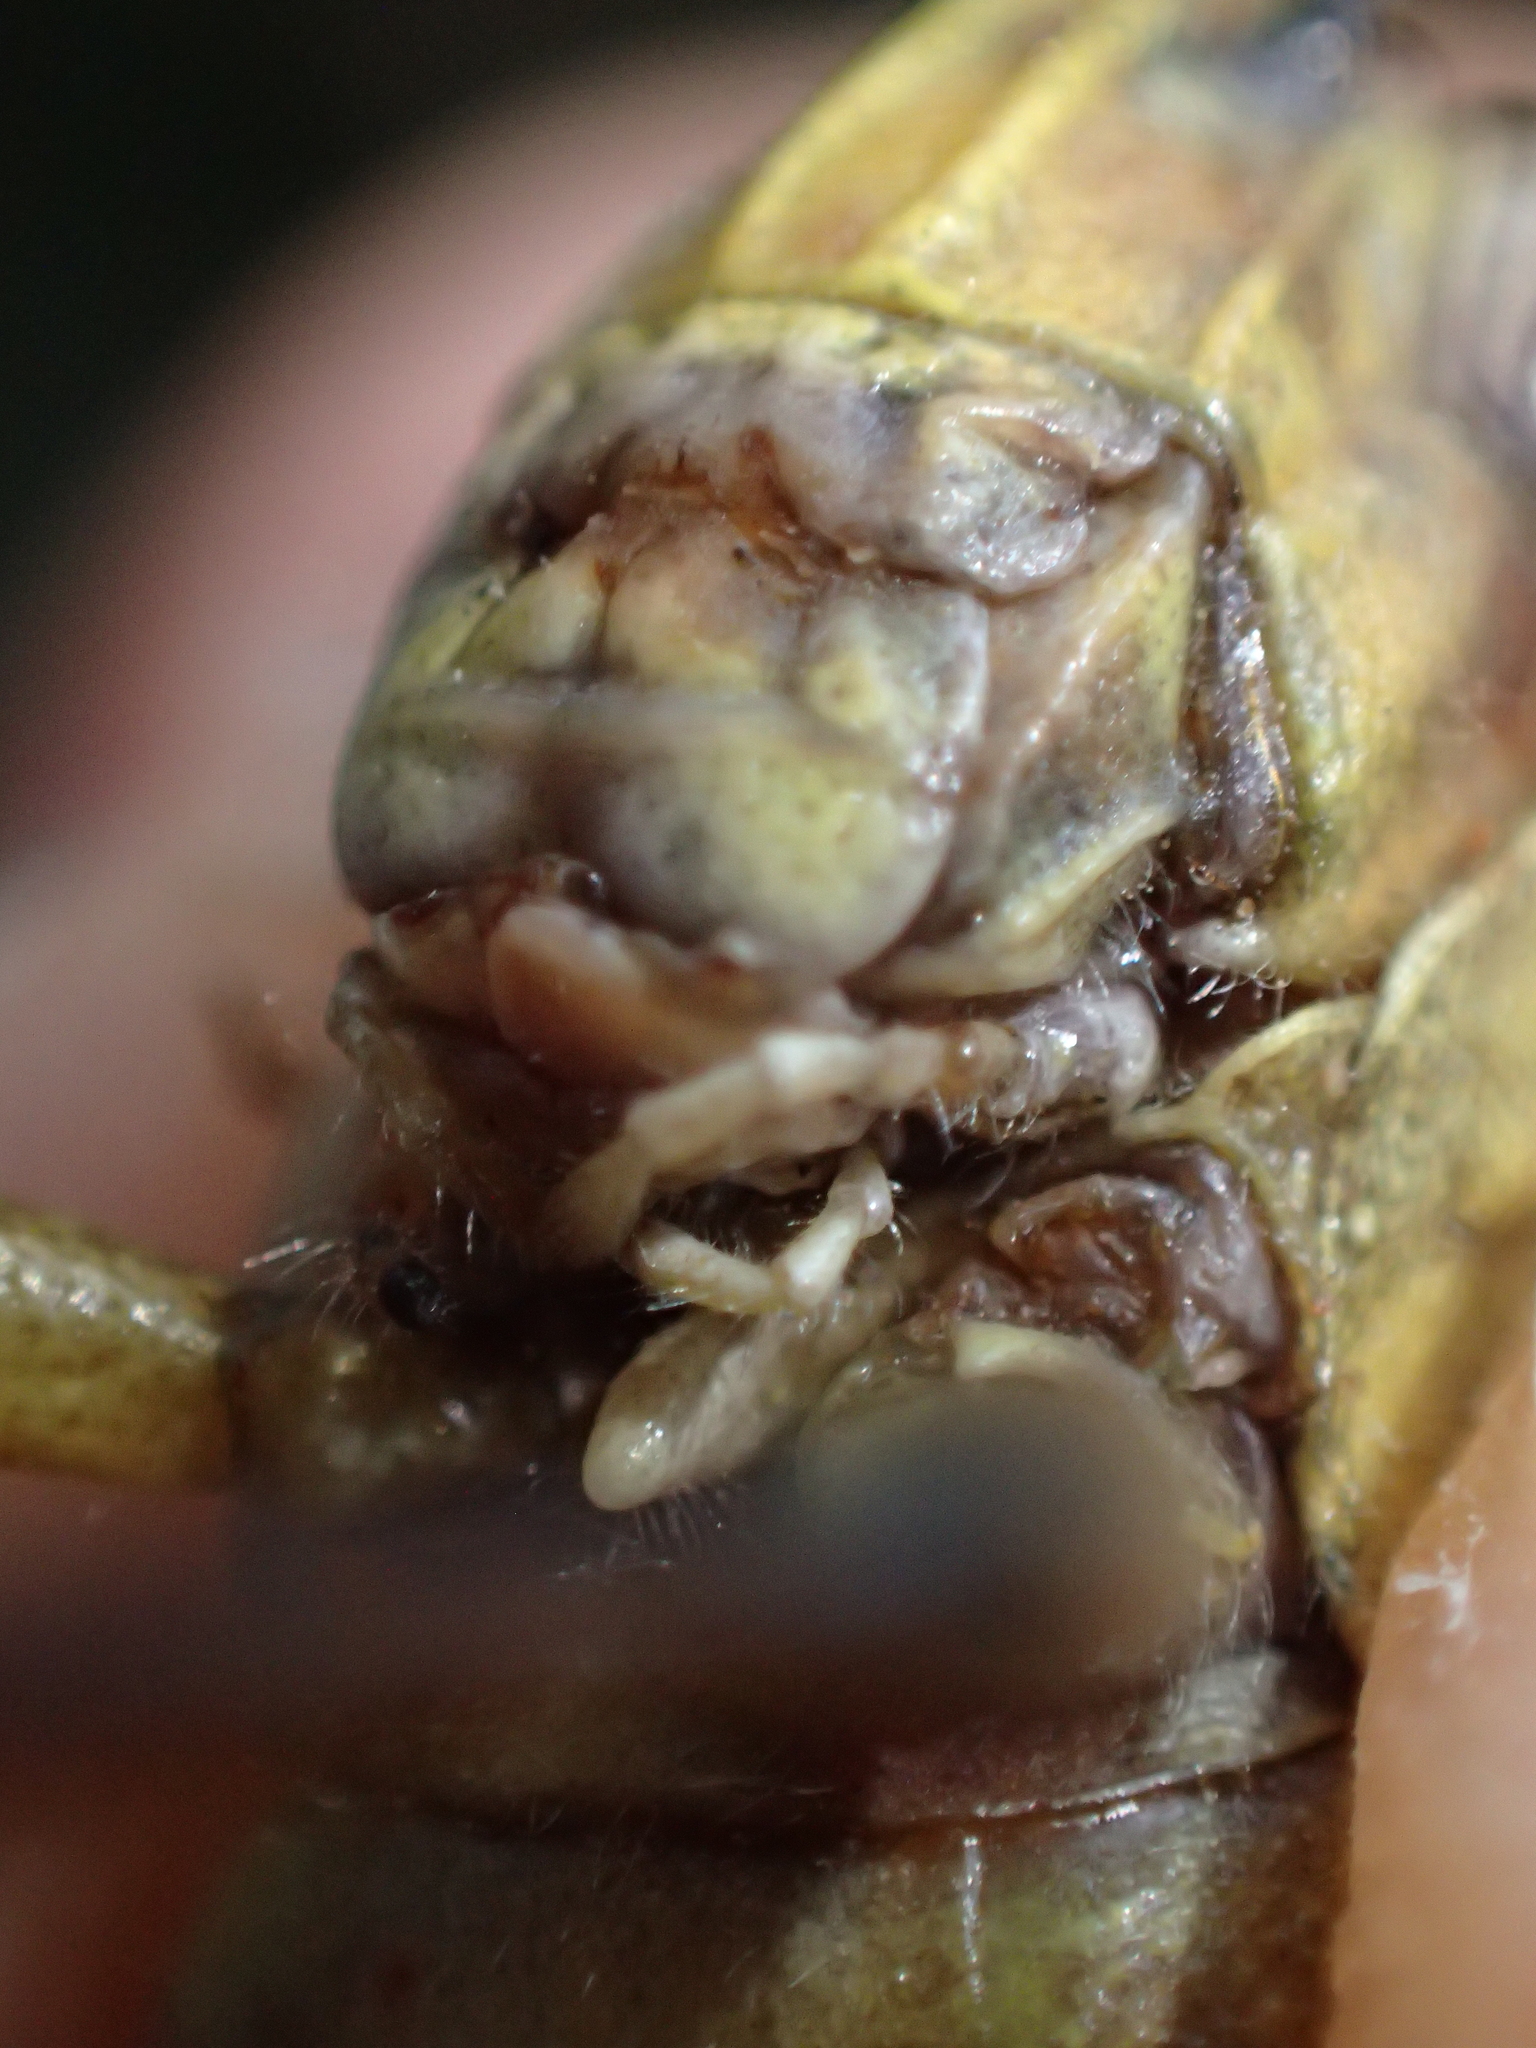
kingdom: Animalia
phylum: Arthropoda
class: Insecta
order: Orthoptera
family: Acrididae
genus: Anacridium
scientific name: Anacridium aegyptium
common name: Egyptian grasshopper
